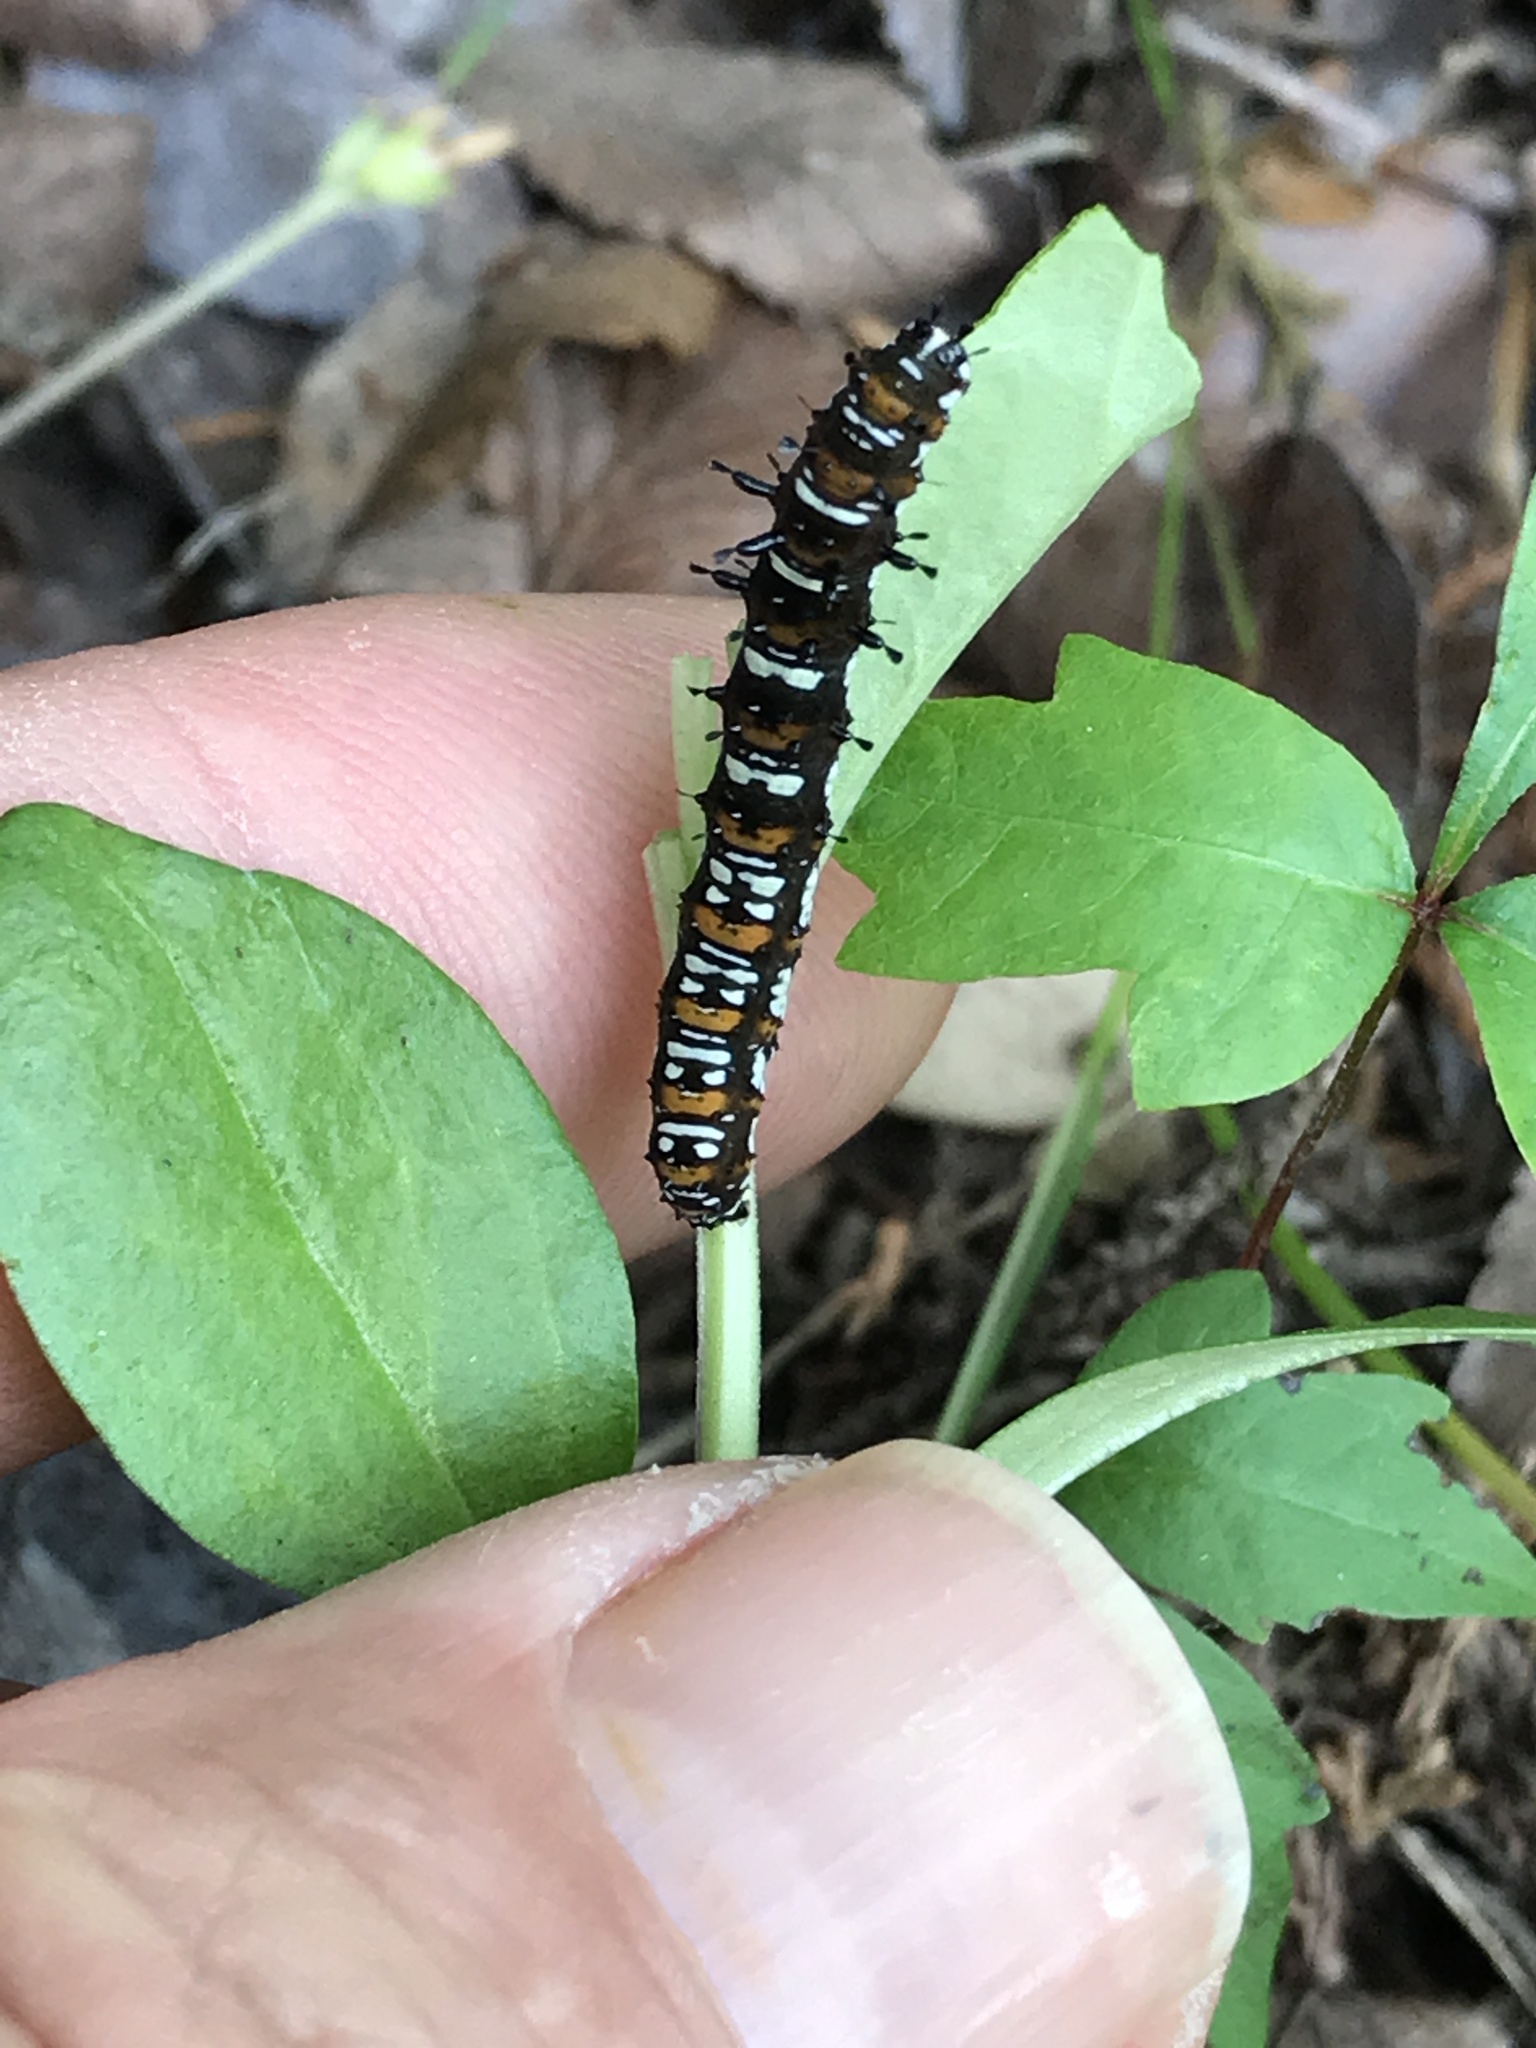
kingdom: Animalia
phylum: Arthropoda
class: Insecta
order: Lepidoptera
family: Noctuidae
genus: Cydosia
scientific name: Cydosia aurivitta
